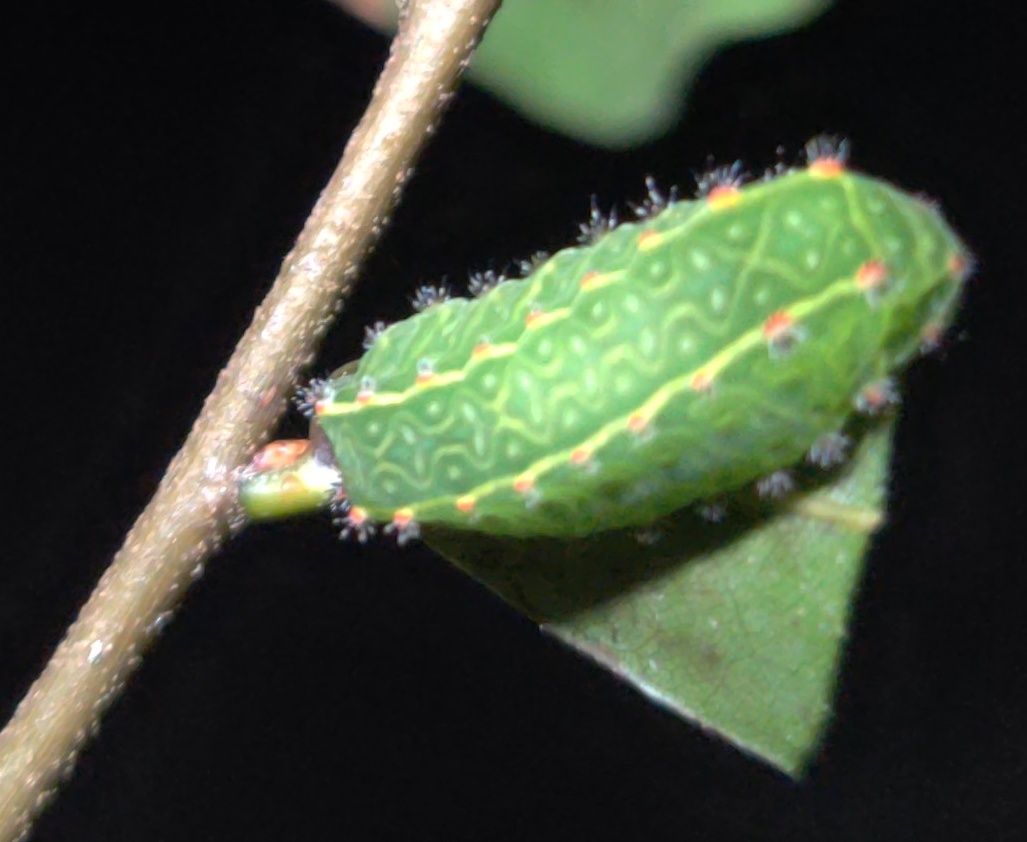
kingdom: Animalia
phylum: Arthropoda
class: Insecta
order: Lepidoptera
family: Limacodidae
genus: Natada
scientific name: Natada nasoni
